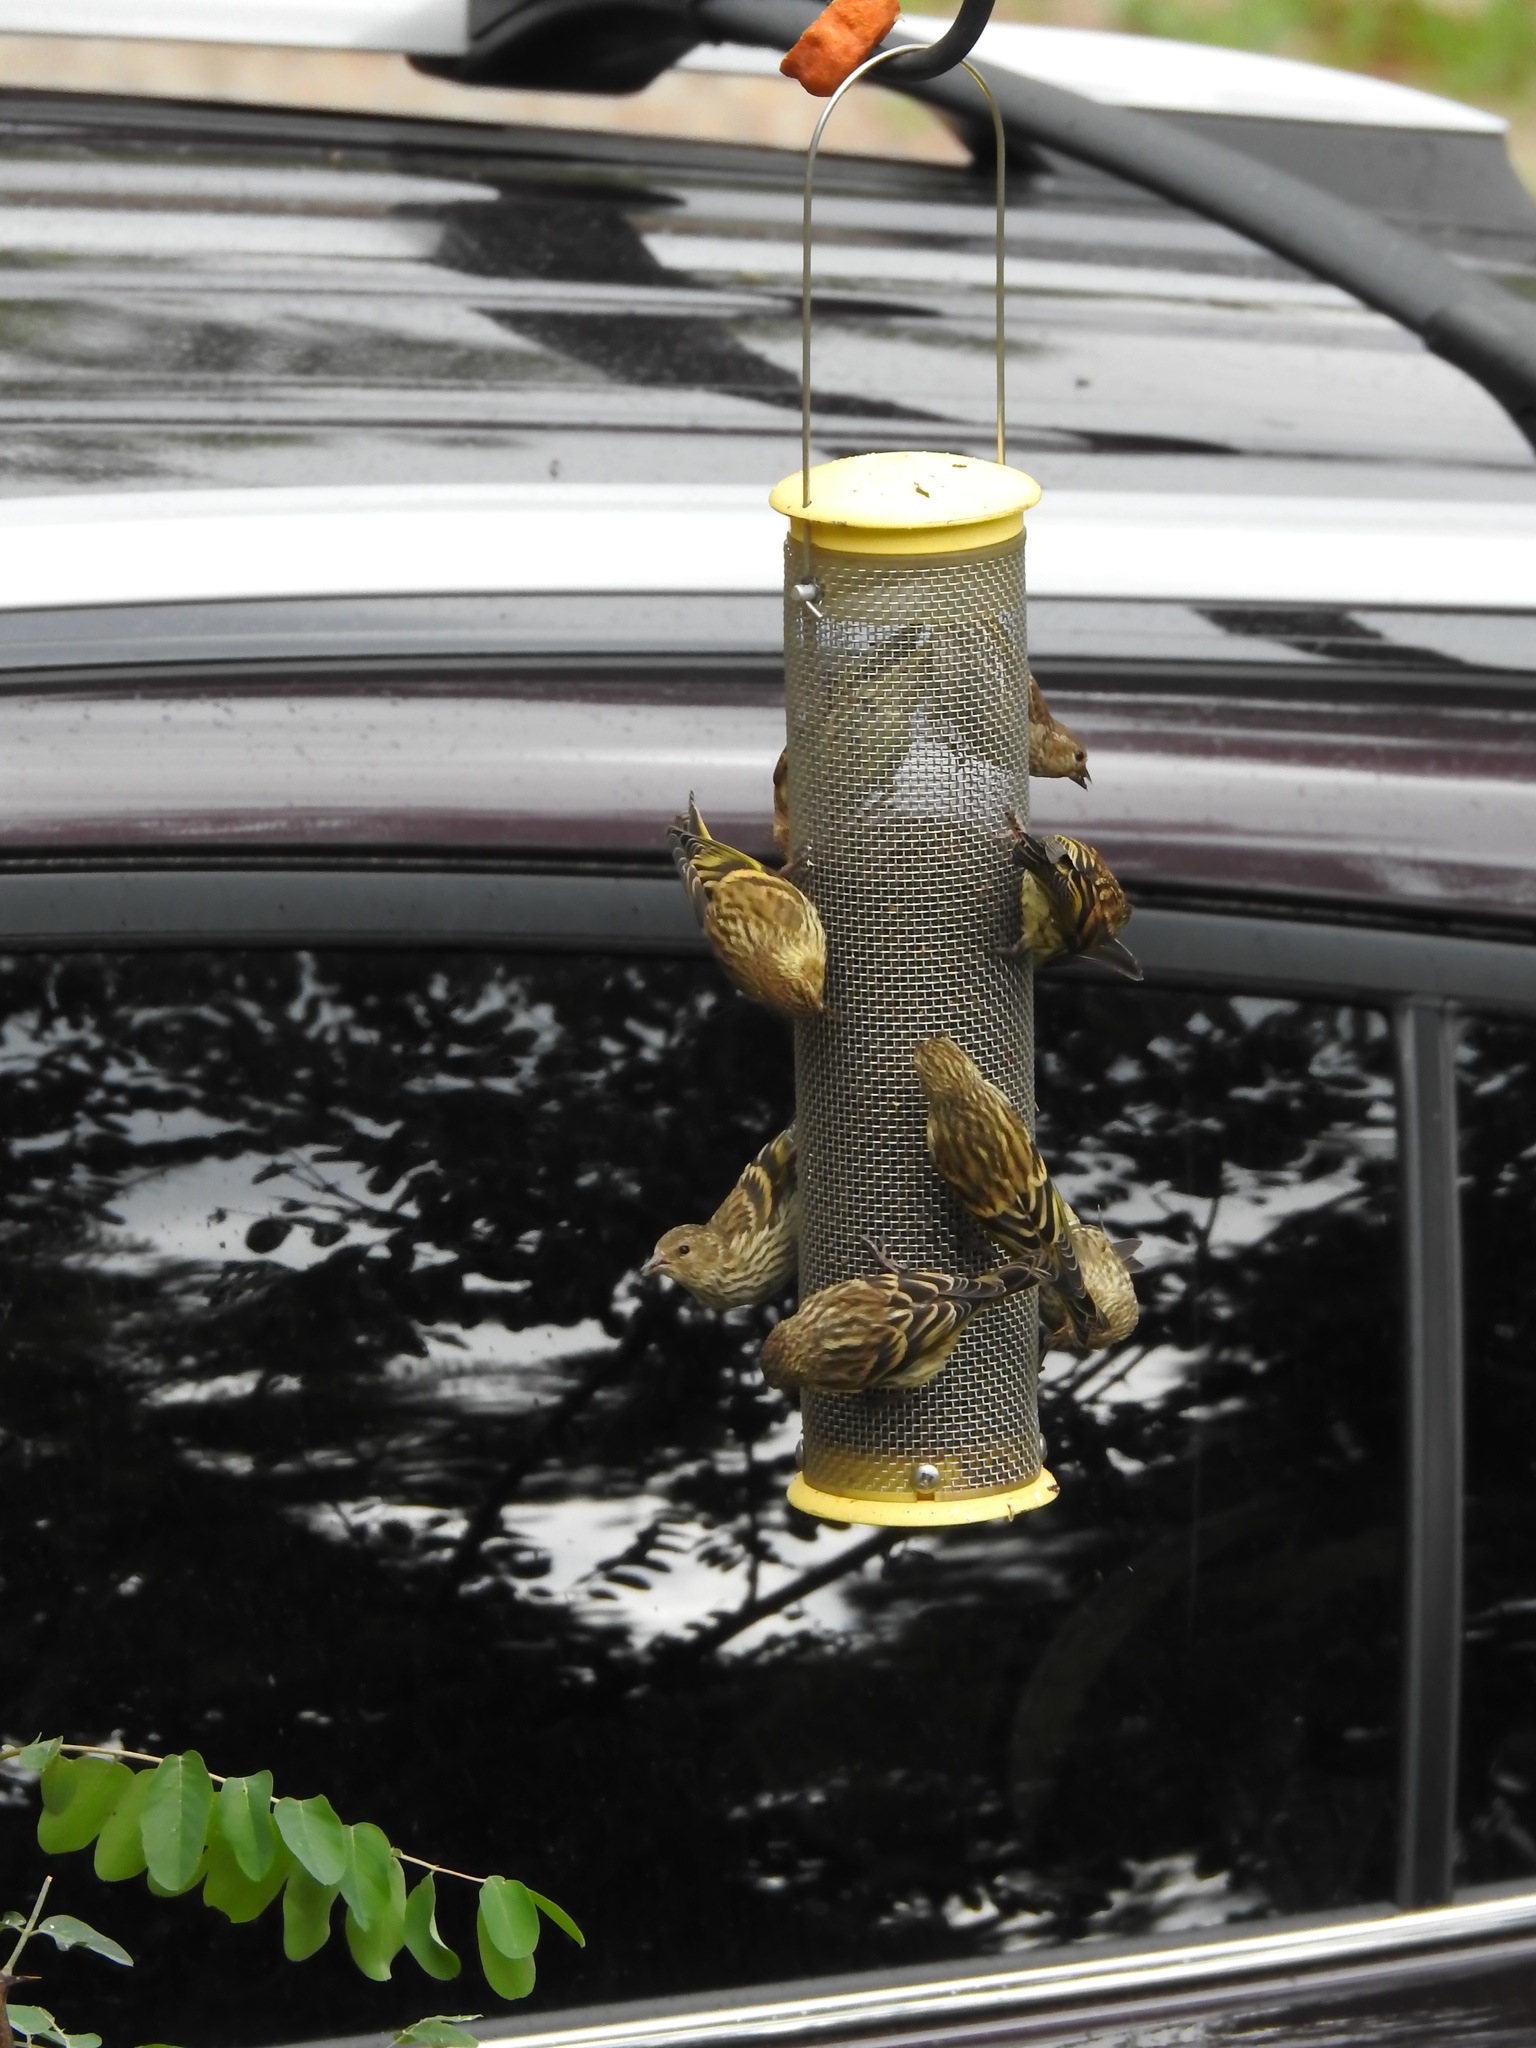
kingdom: Animalia
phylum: Chordata
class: Aves
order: Passeriformes
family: Fringillidae
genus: Spinus
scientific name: Spinus pinus
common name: Pine siskin
